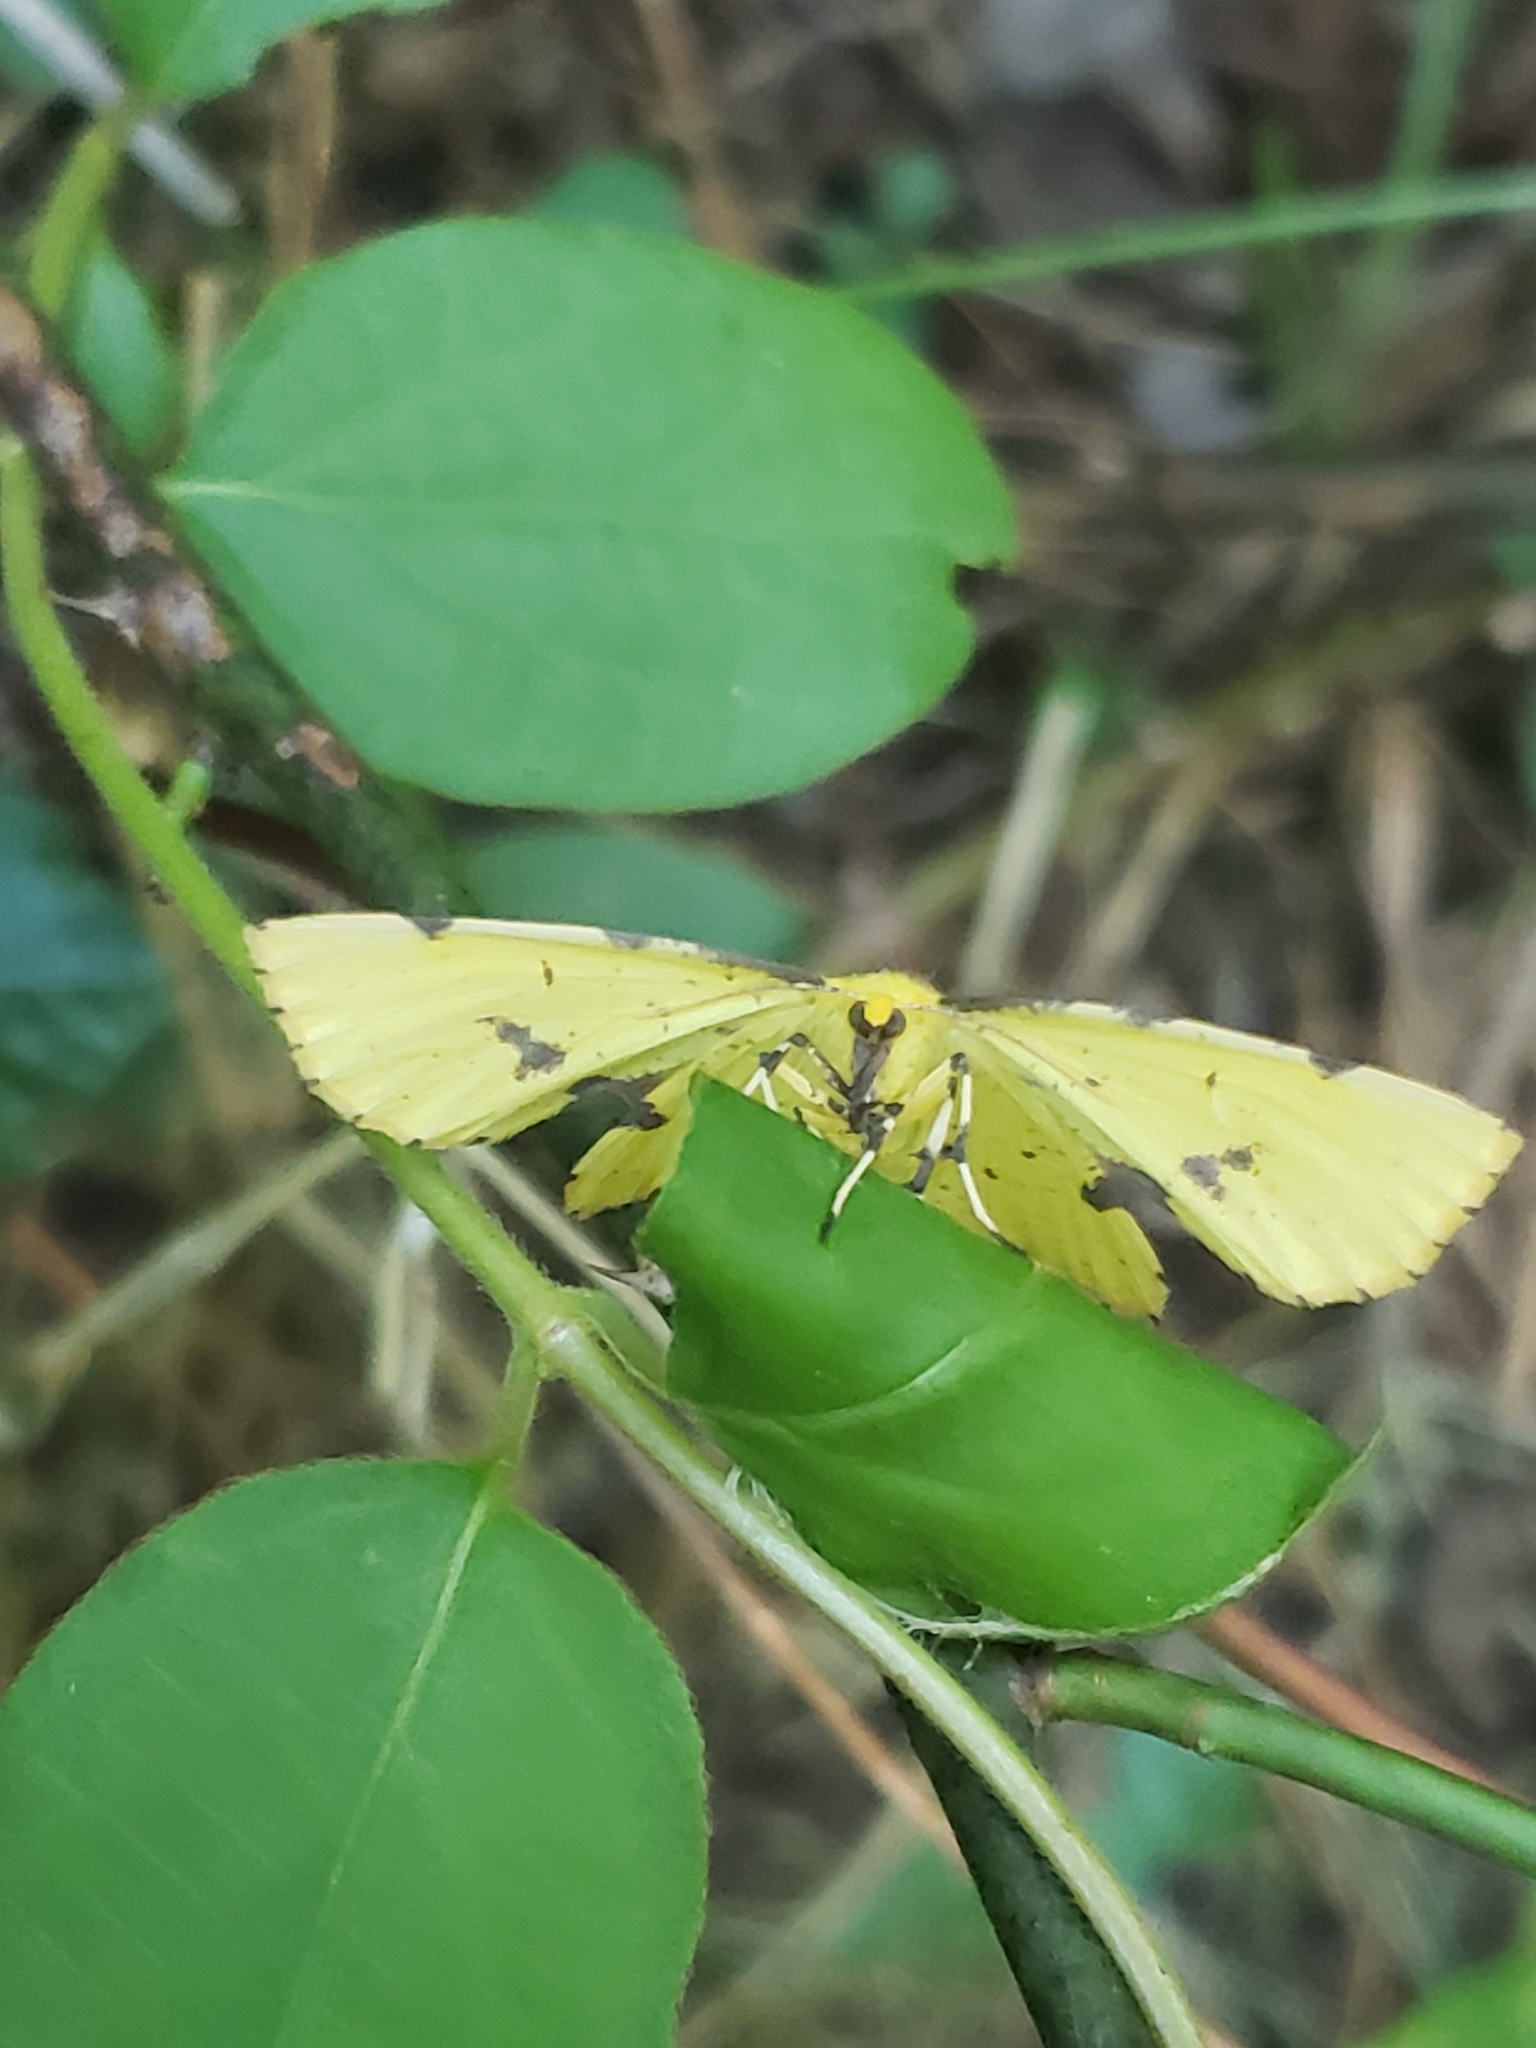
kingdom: Animalia
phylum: Arthropoda
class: Insecta
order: Lepidoptera
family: Geometridae
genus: Xanthotype
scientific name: Xanthotype
